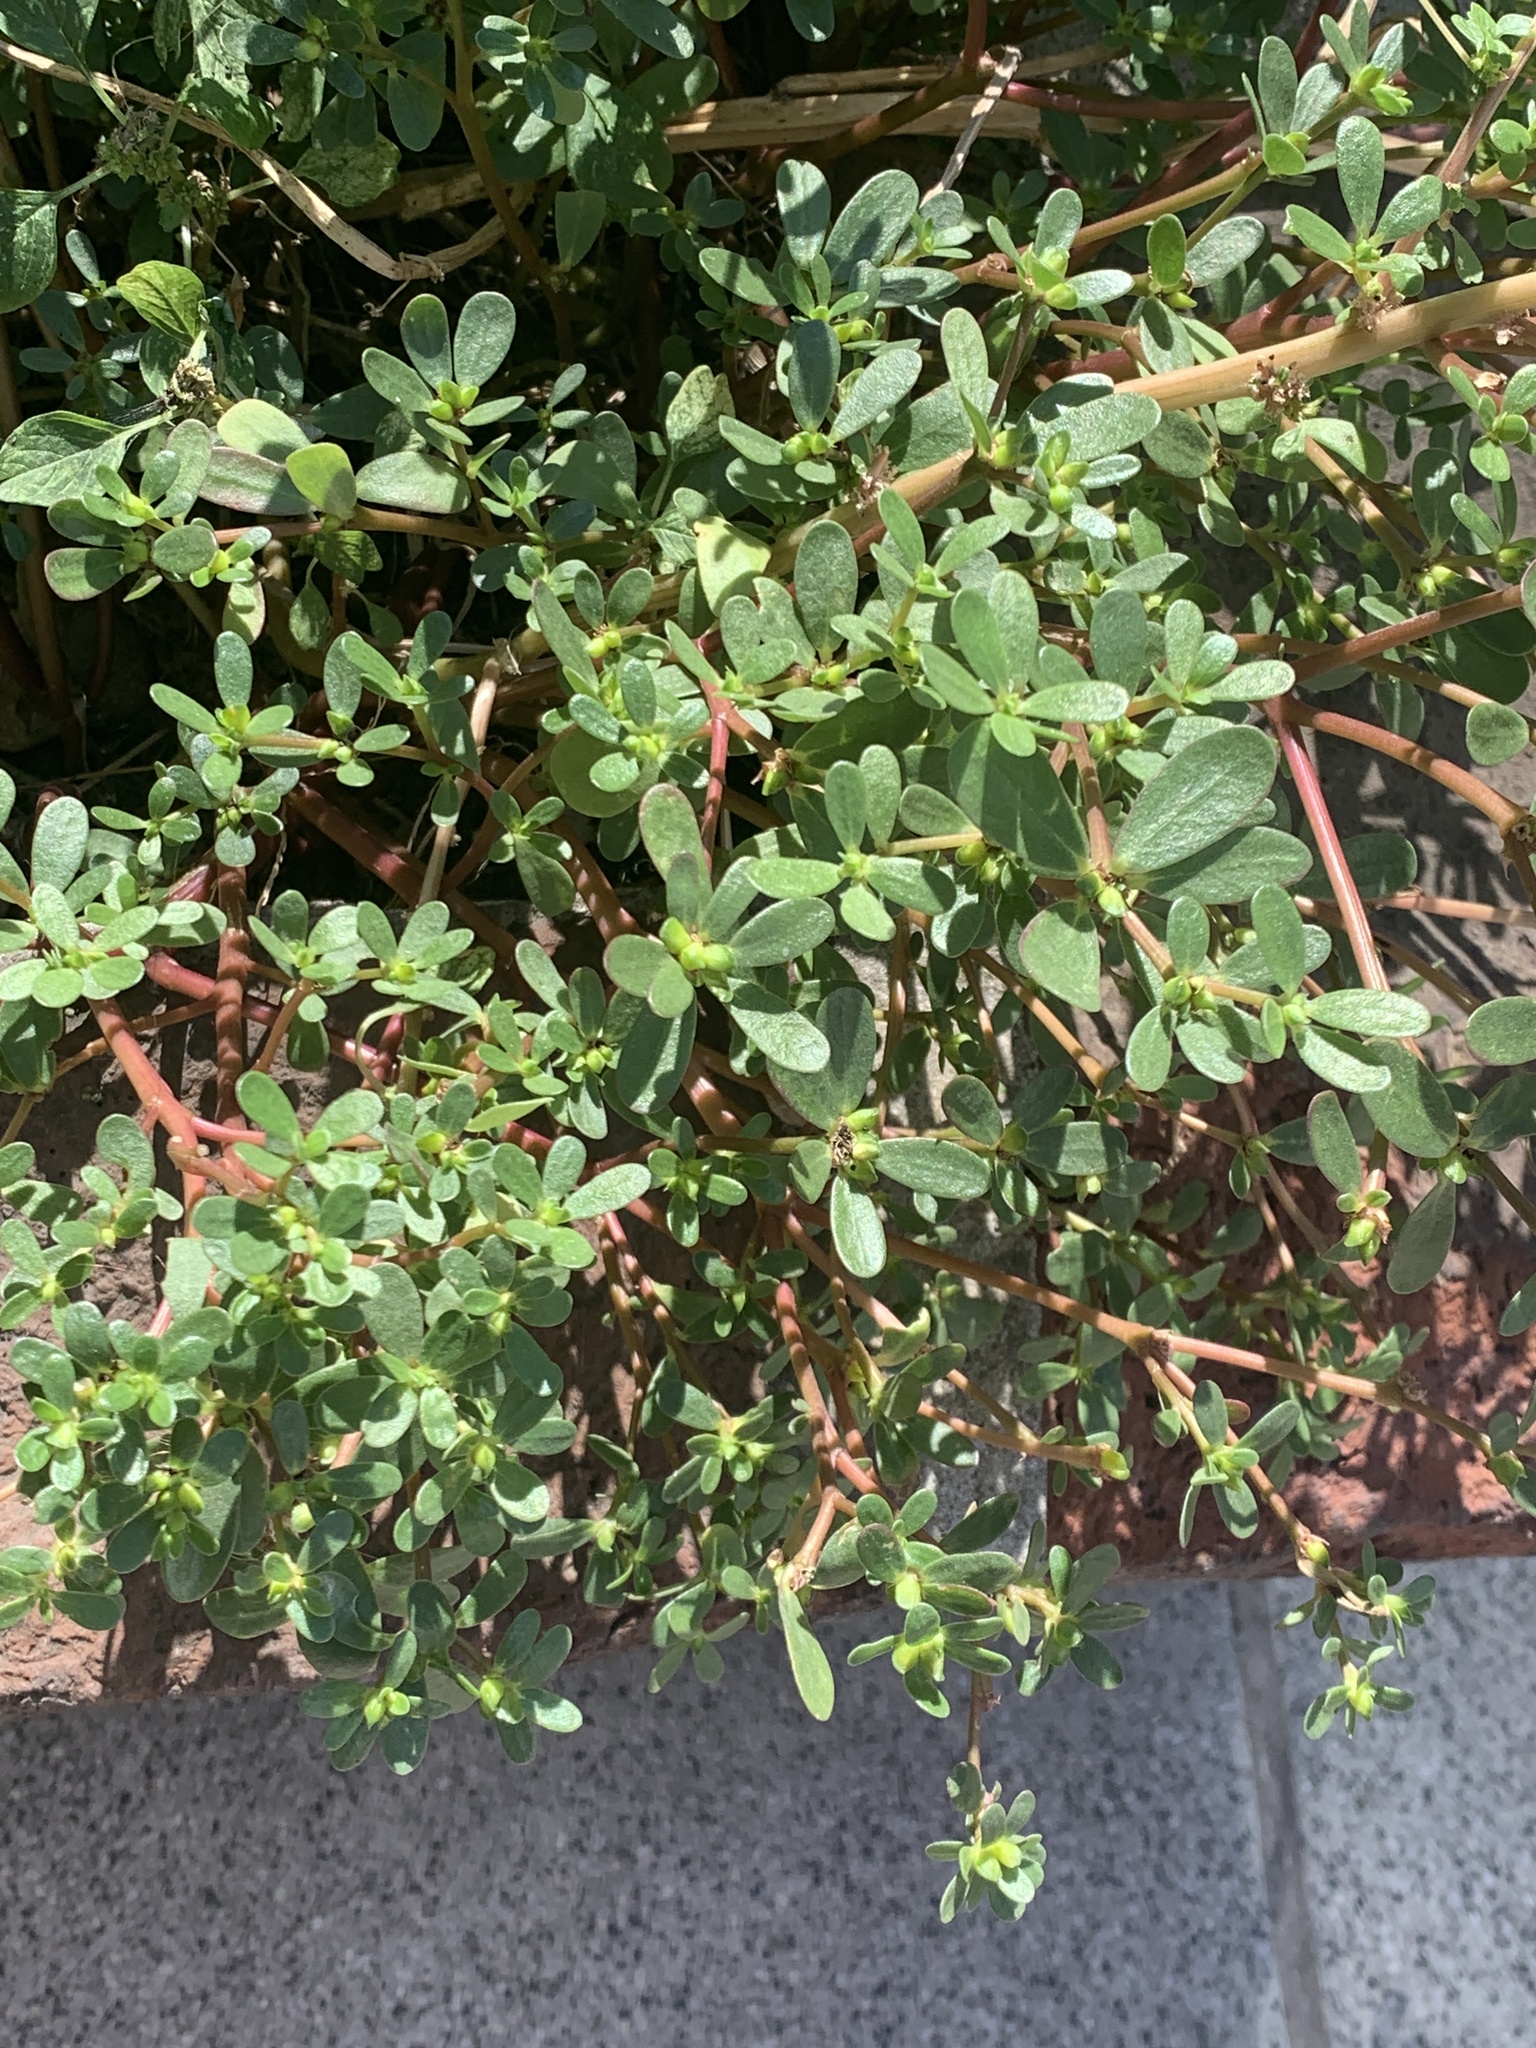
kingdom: Plantae
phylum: Tracheophyta
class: Magnoliopsida
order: Caryophyllales
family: Portulacaceae
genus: Portulaca
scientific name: Portulaca oleracea
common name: Common purslane
